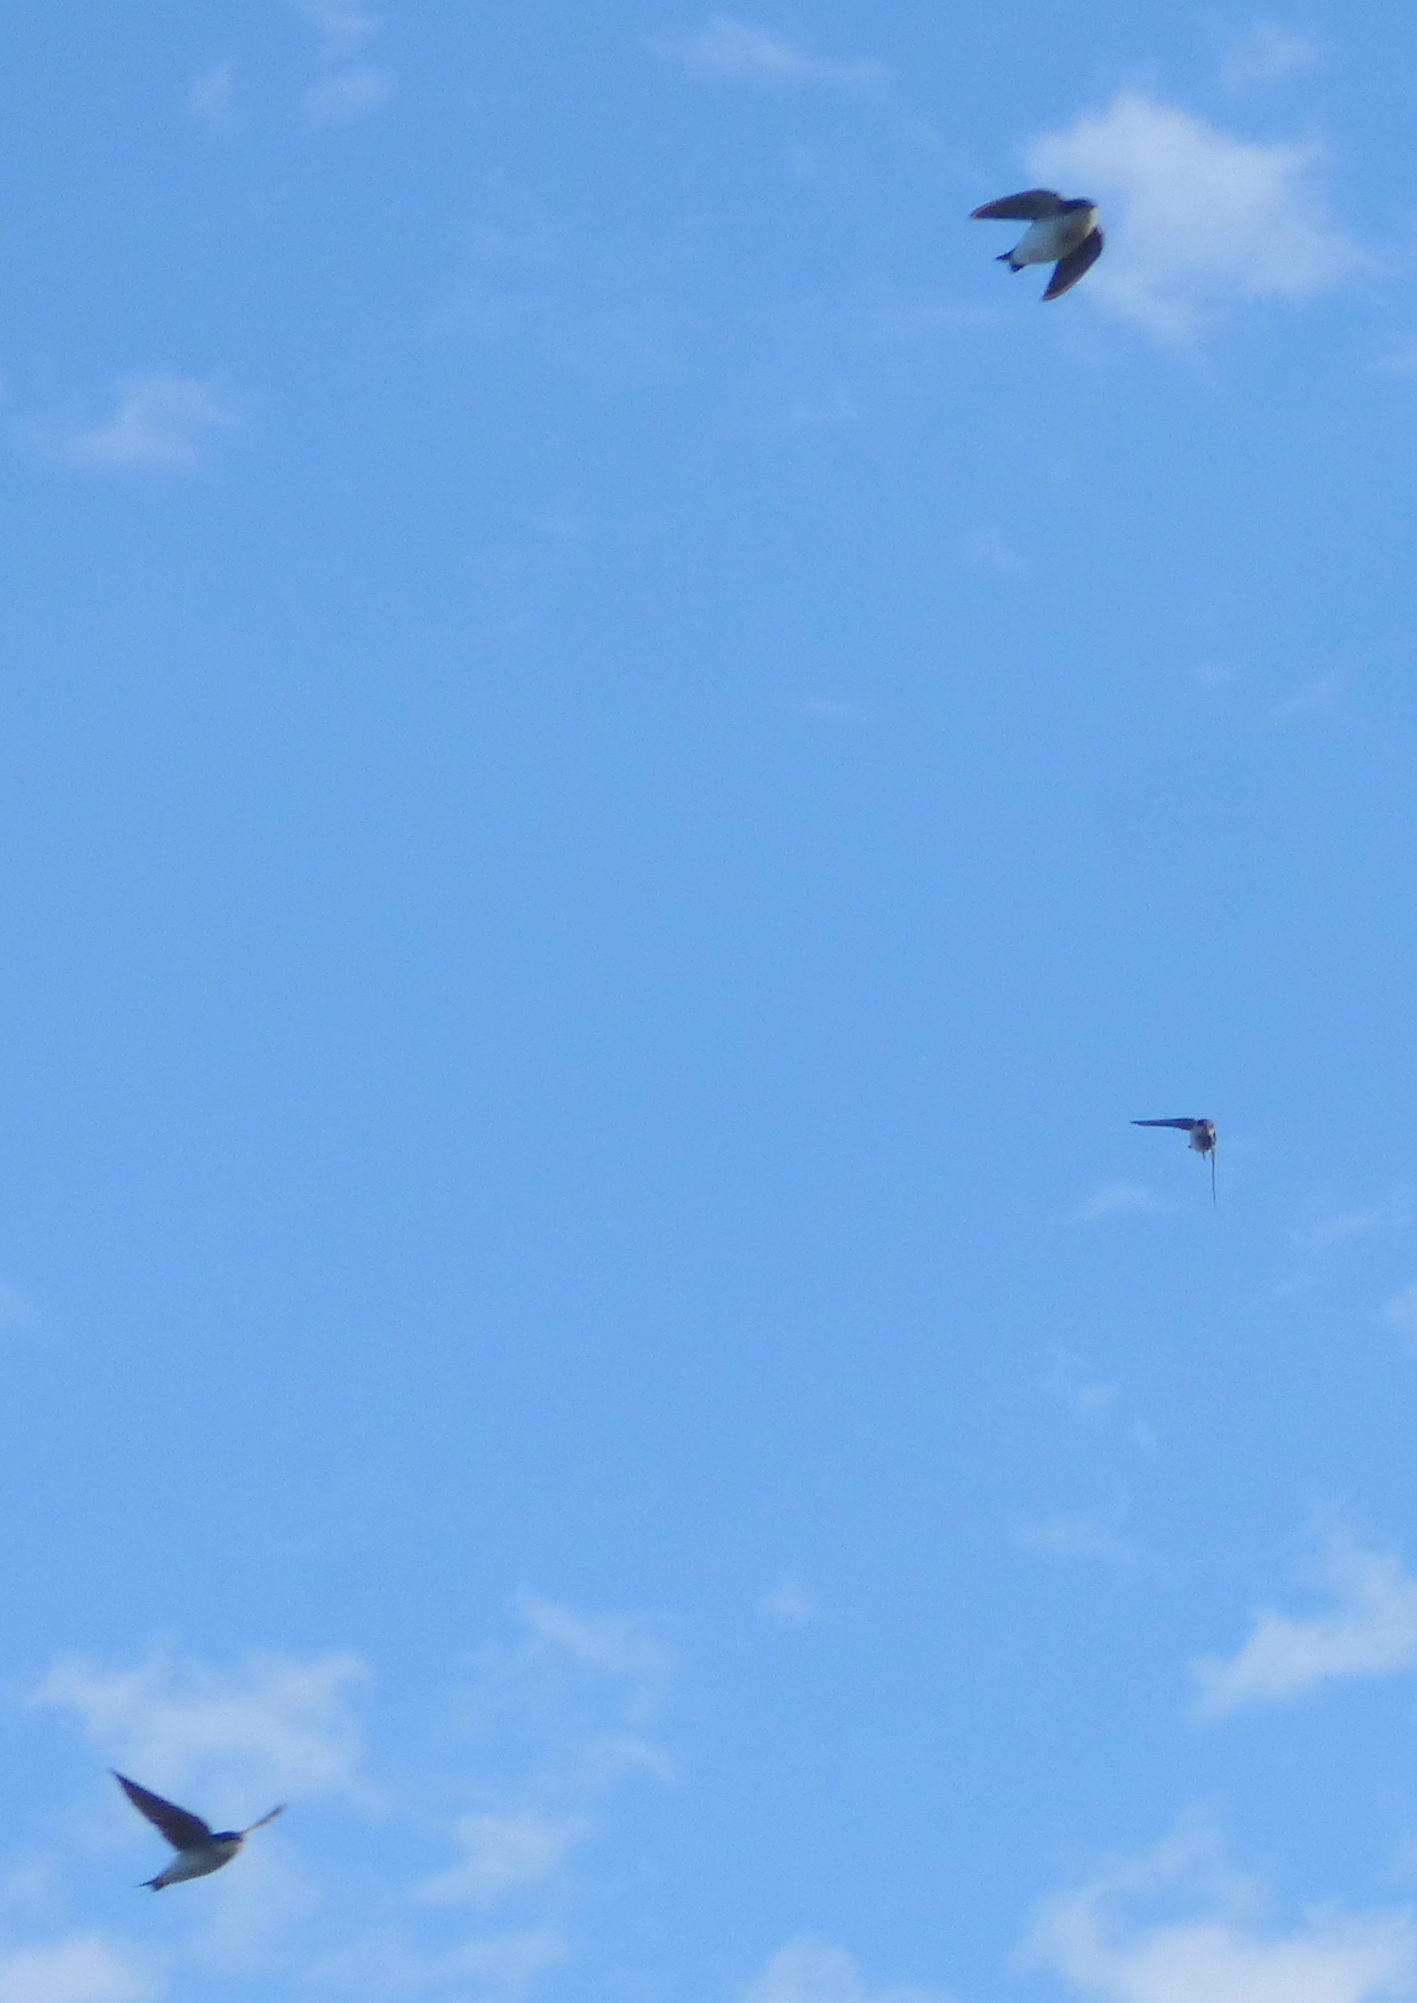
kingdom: Animalia
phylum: Chordata
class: Aves
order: Passeriformes
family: Hirundinidae
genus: Tachycineta
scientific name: Tachycineta leucopyga
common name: Chilean swallow
